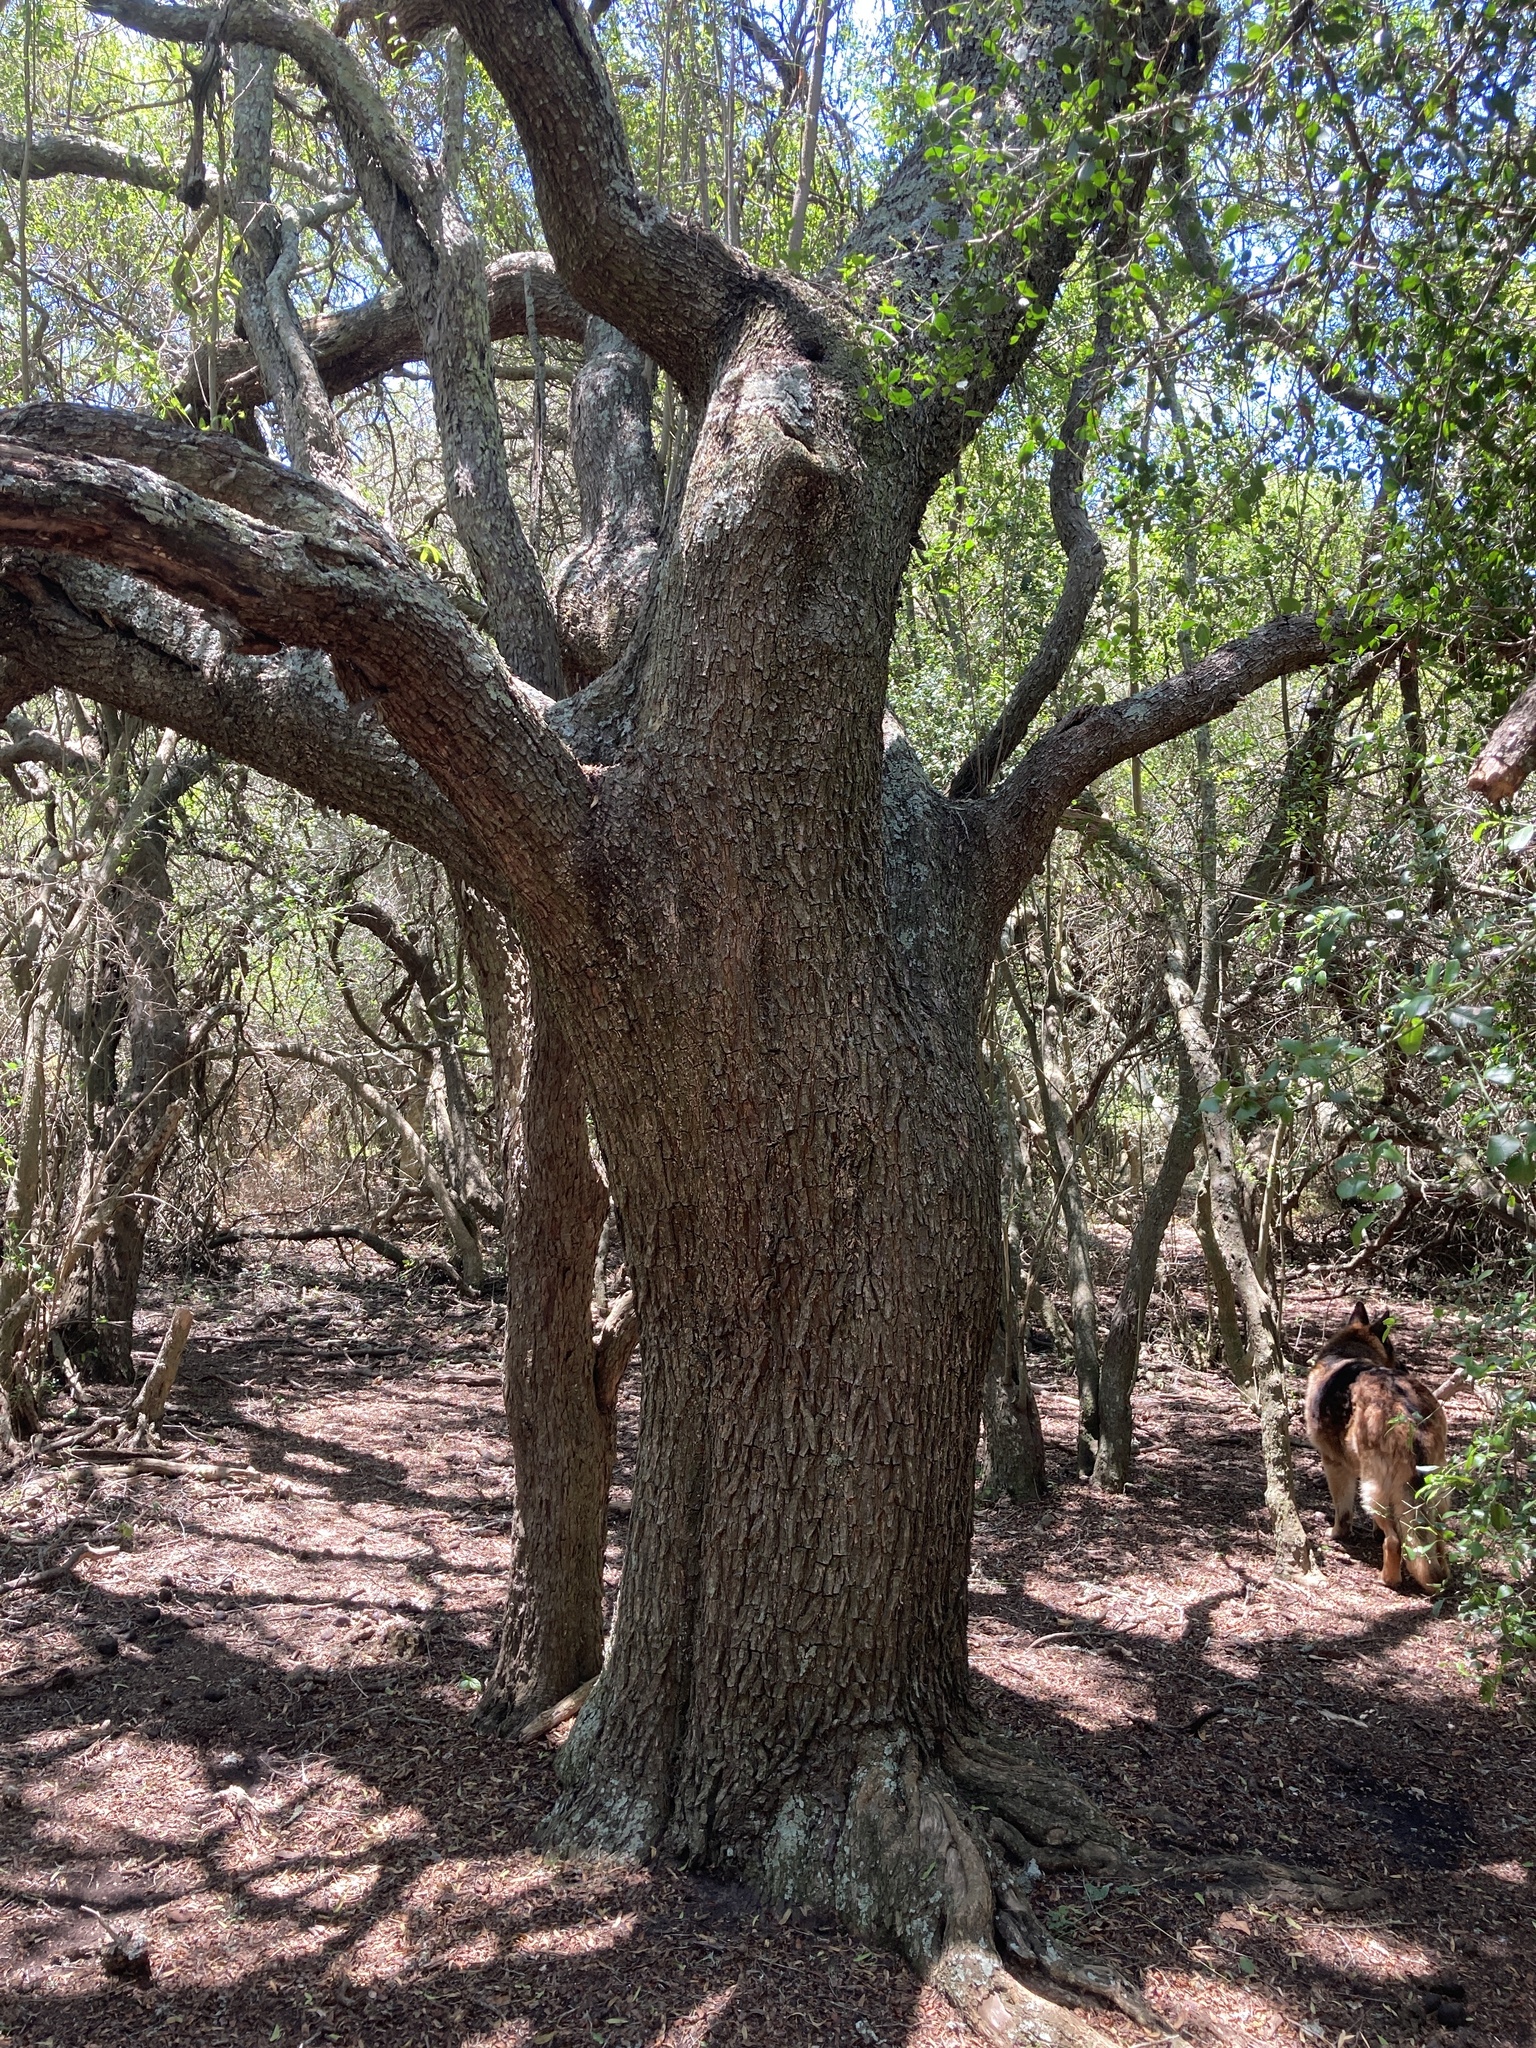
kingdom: Plantae
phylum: Tracheophyta
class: Magnoliopsida
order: Sapindales
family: Anacardiaceae
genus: Schinus
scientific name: Schinus longifolia
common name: Longleaf peppertree
